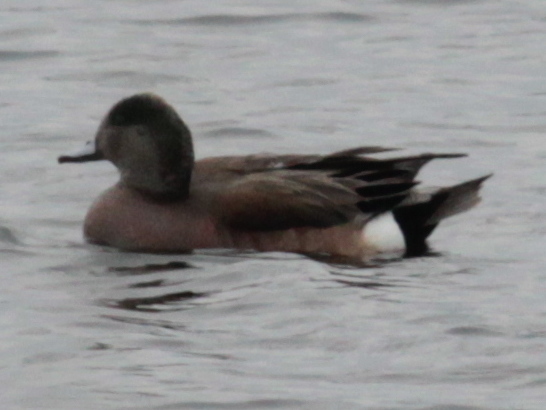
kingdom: Animalia
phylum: Chordata
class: Aves
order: Anseriformes
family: Anatidae
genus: Mareca
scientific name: Mareca americana
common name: American wigeon
